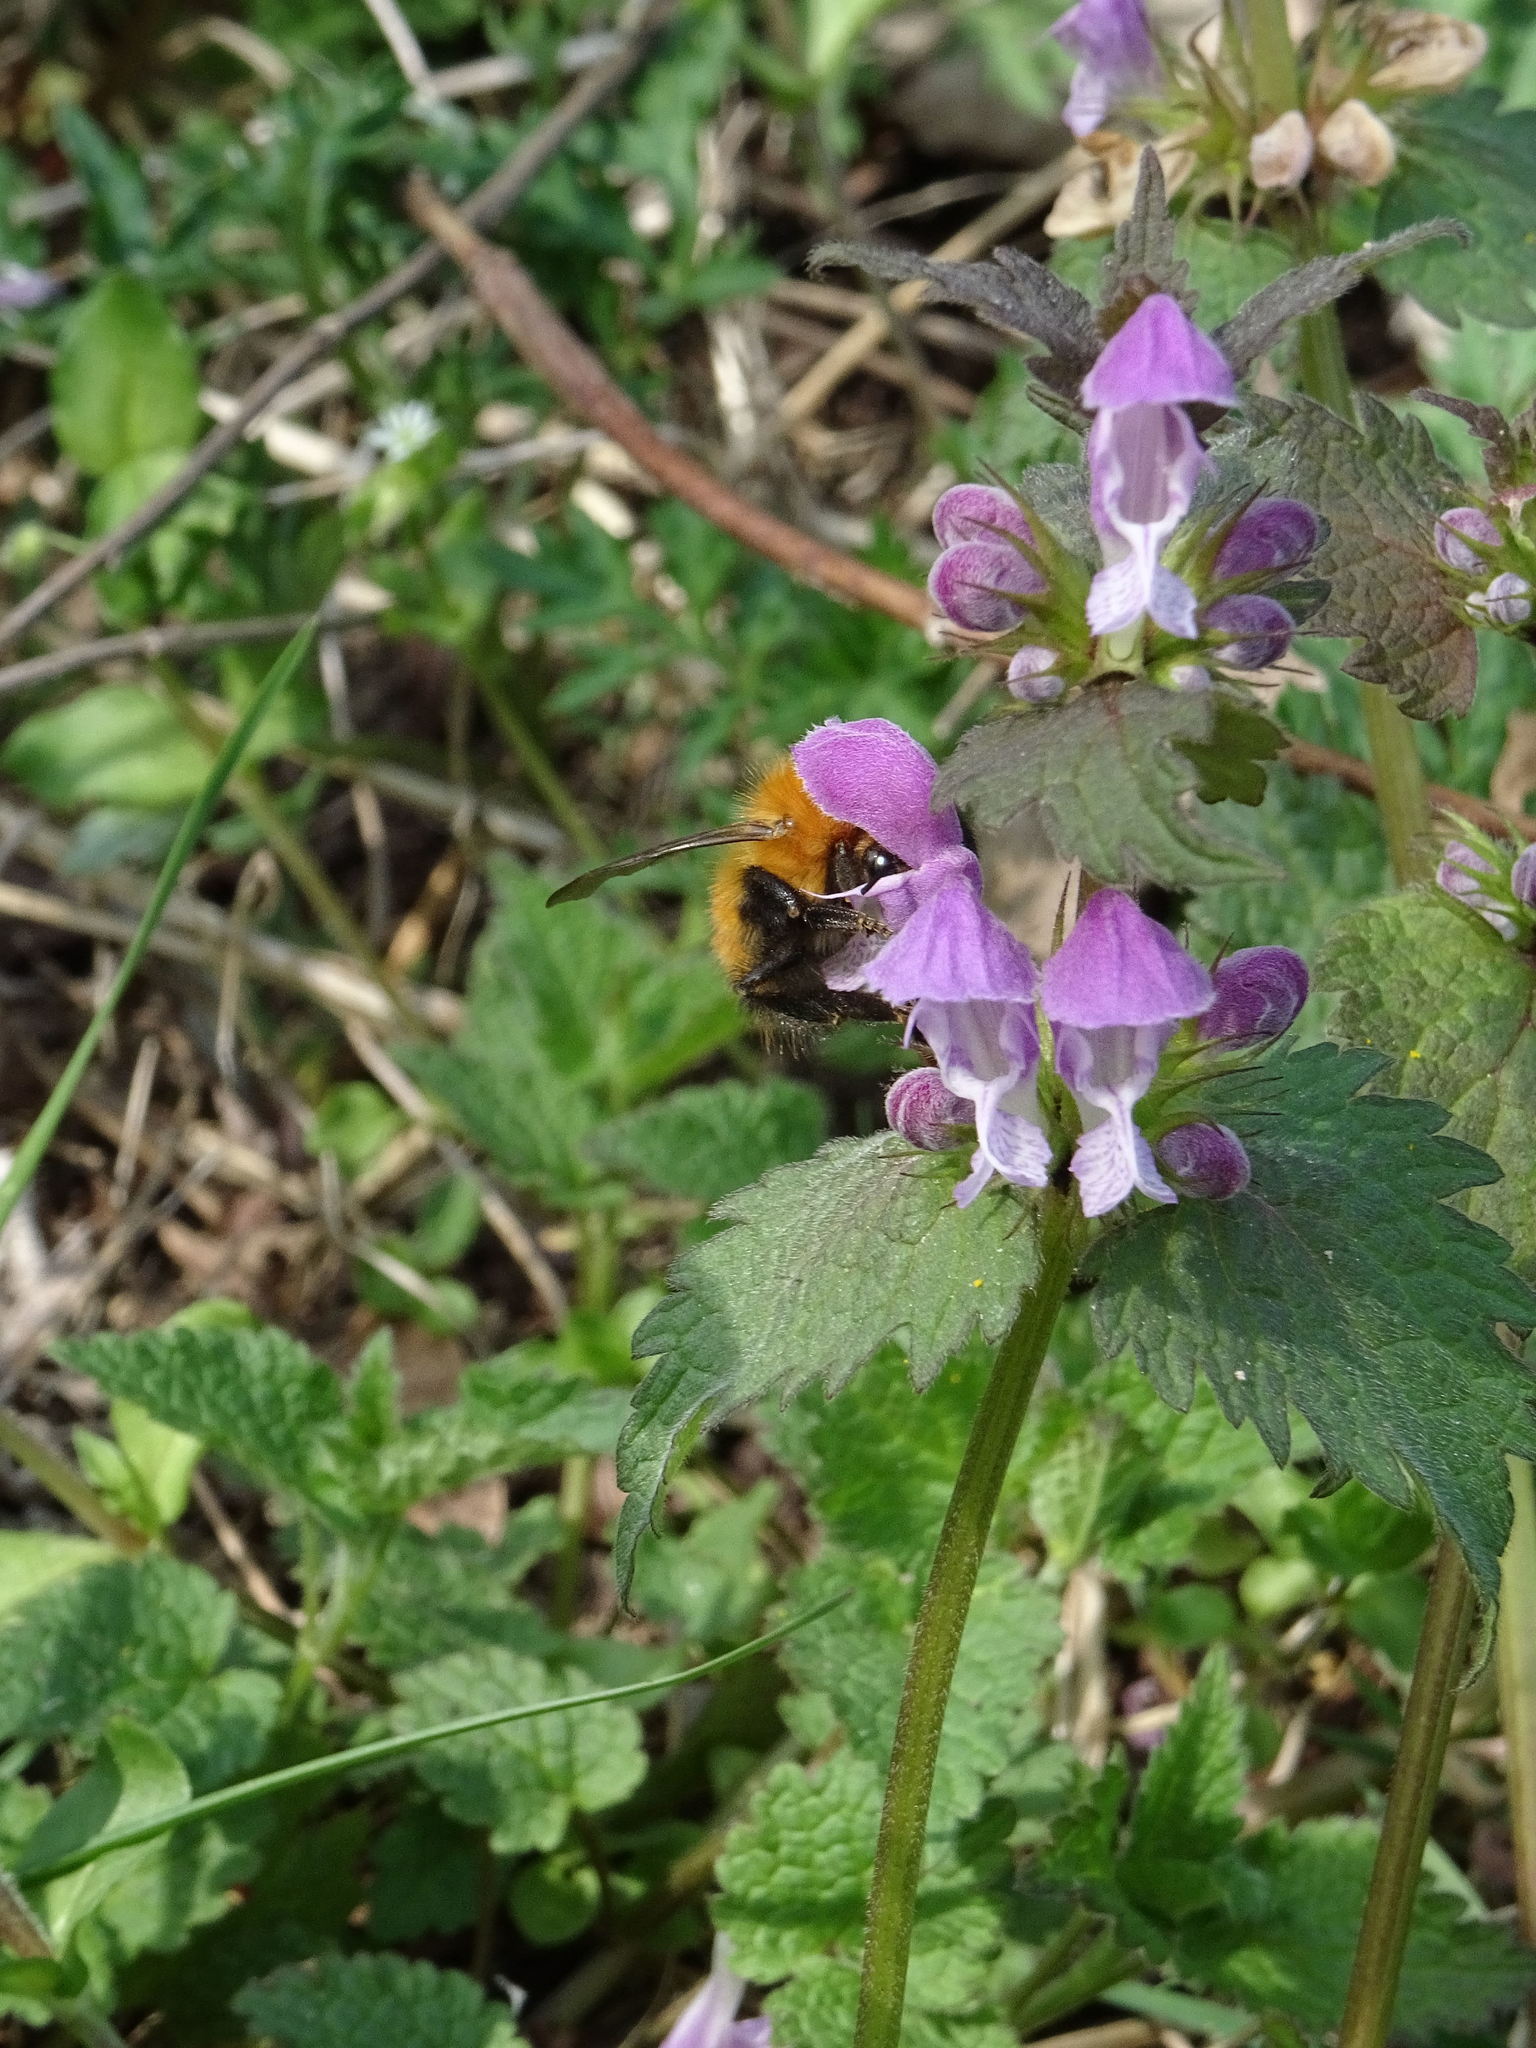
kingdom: Animalia
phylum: Arthropoda
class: Insecta
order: Hymenoptera
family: Apidae
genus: Bombus
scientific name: Bombus pascuorum
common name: Common carder bee
